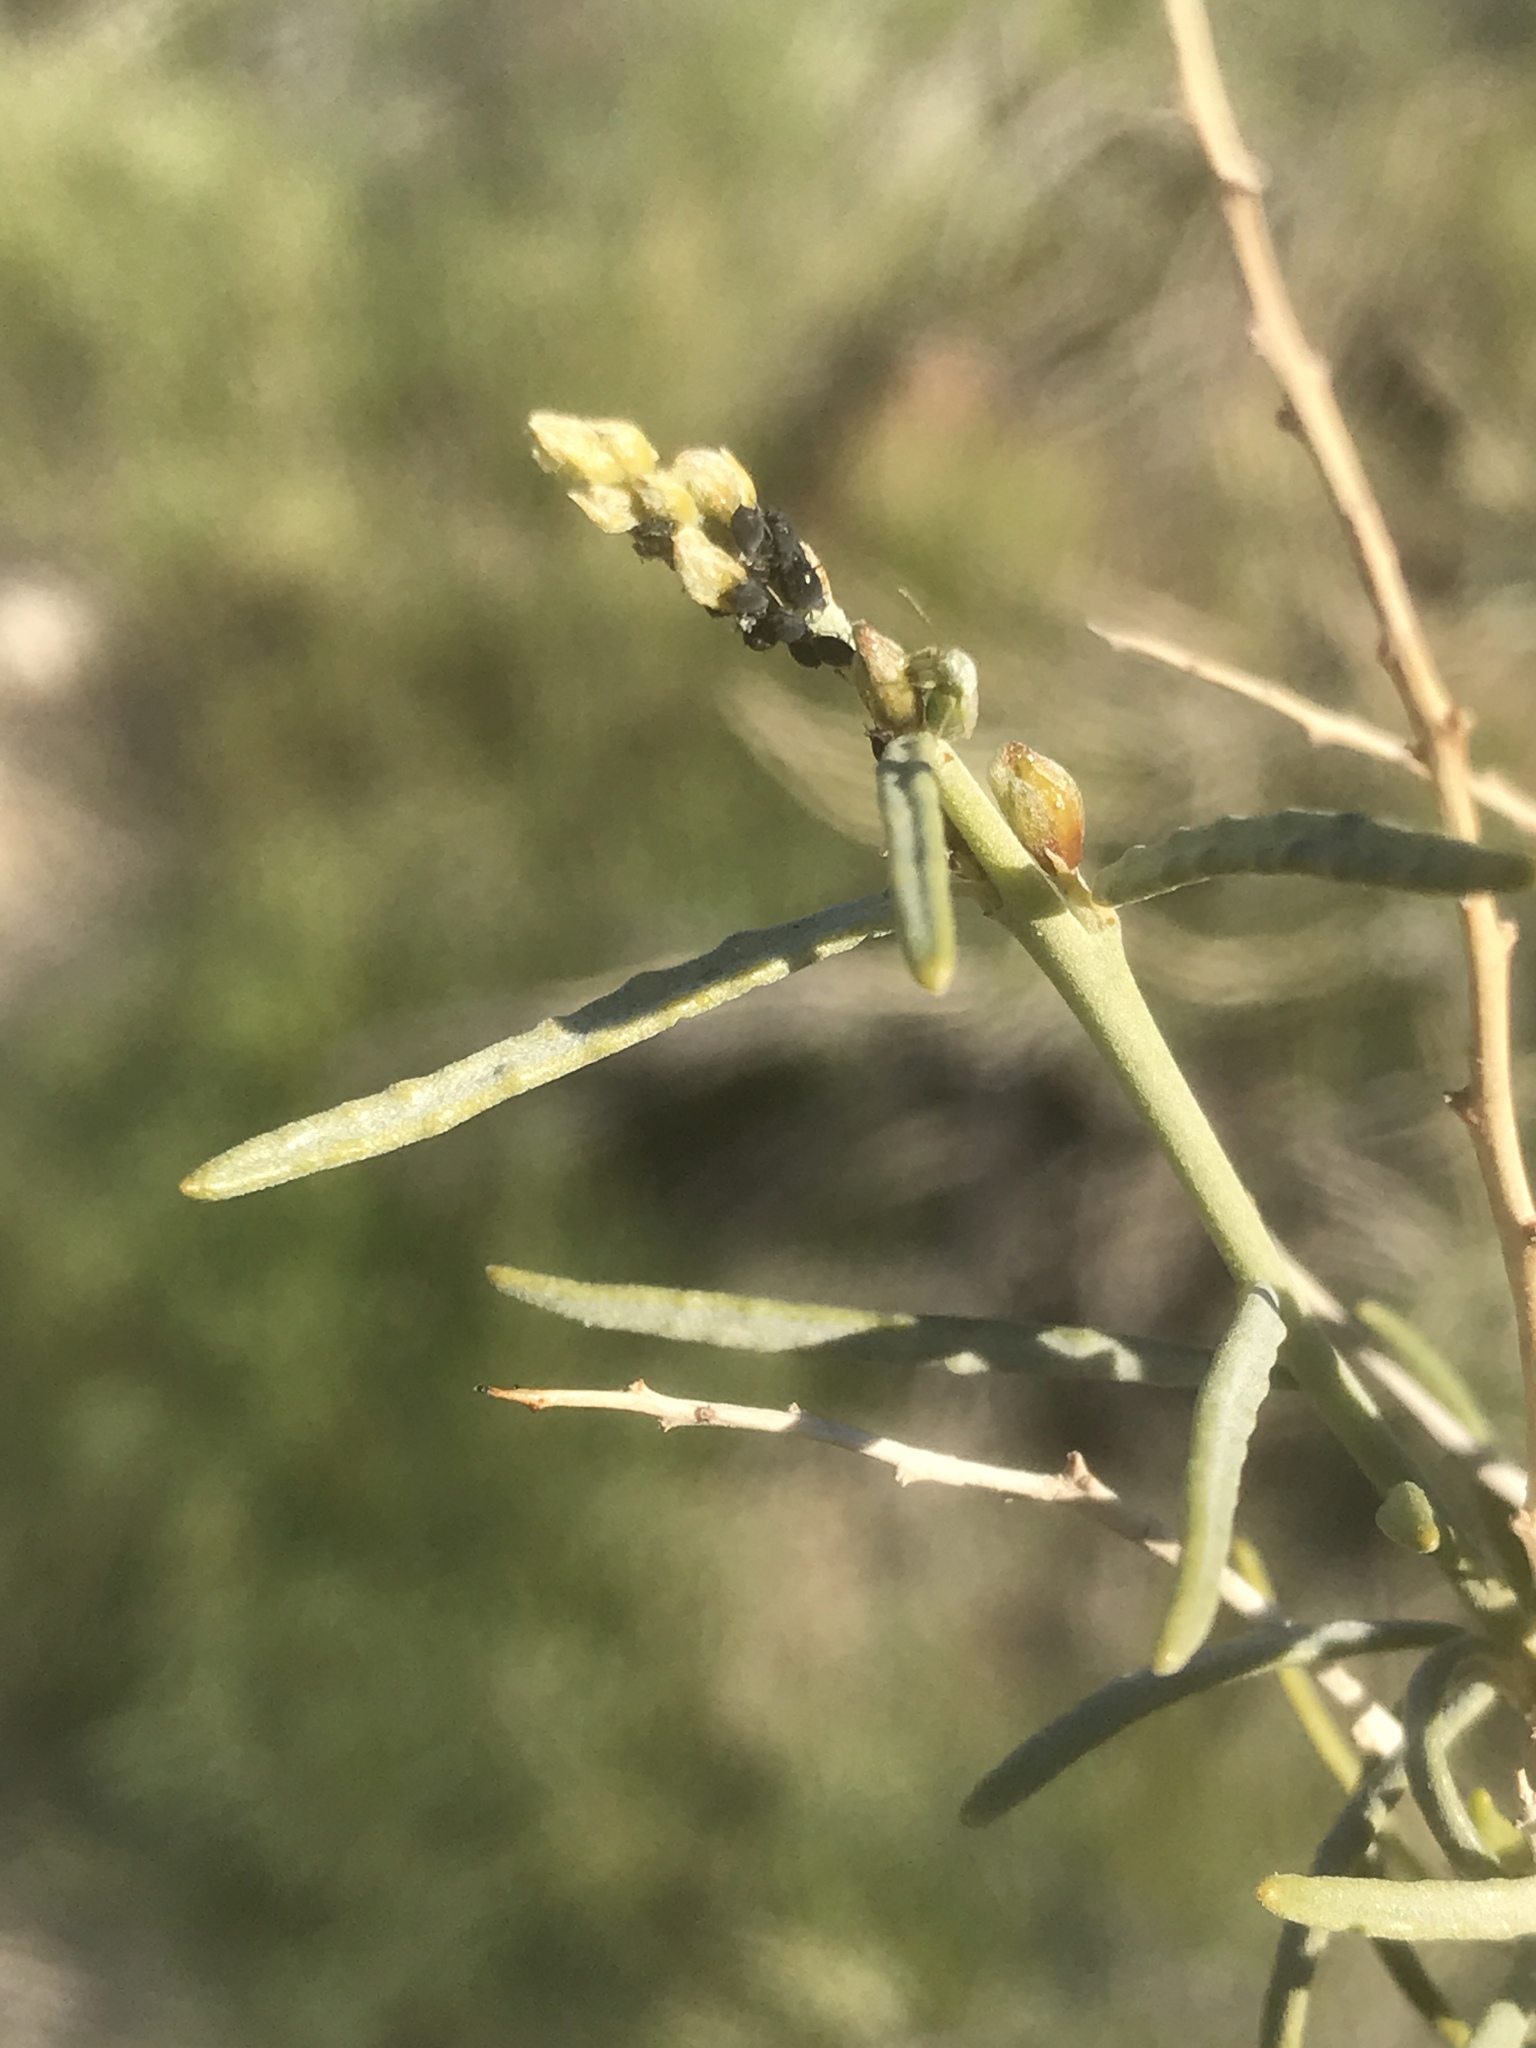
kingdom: Plantae
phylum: Tracheophyta
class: Magnoliopsida
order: Fabales
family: Fabaceae
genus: Psorothamnus
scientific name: Psorothamnus schottii
